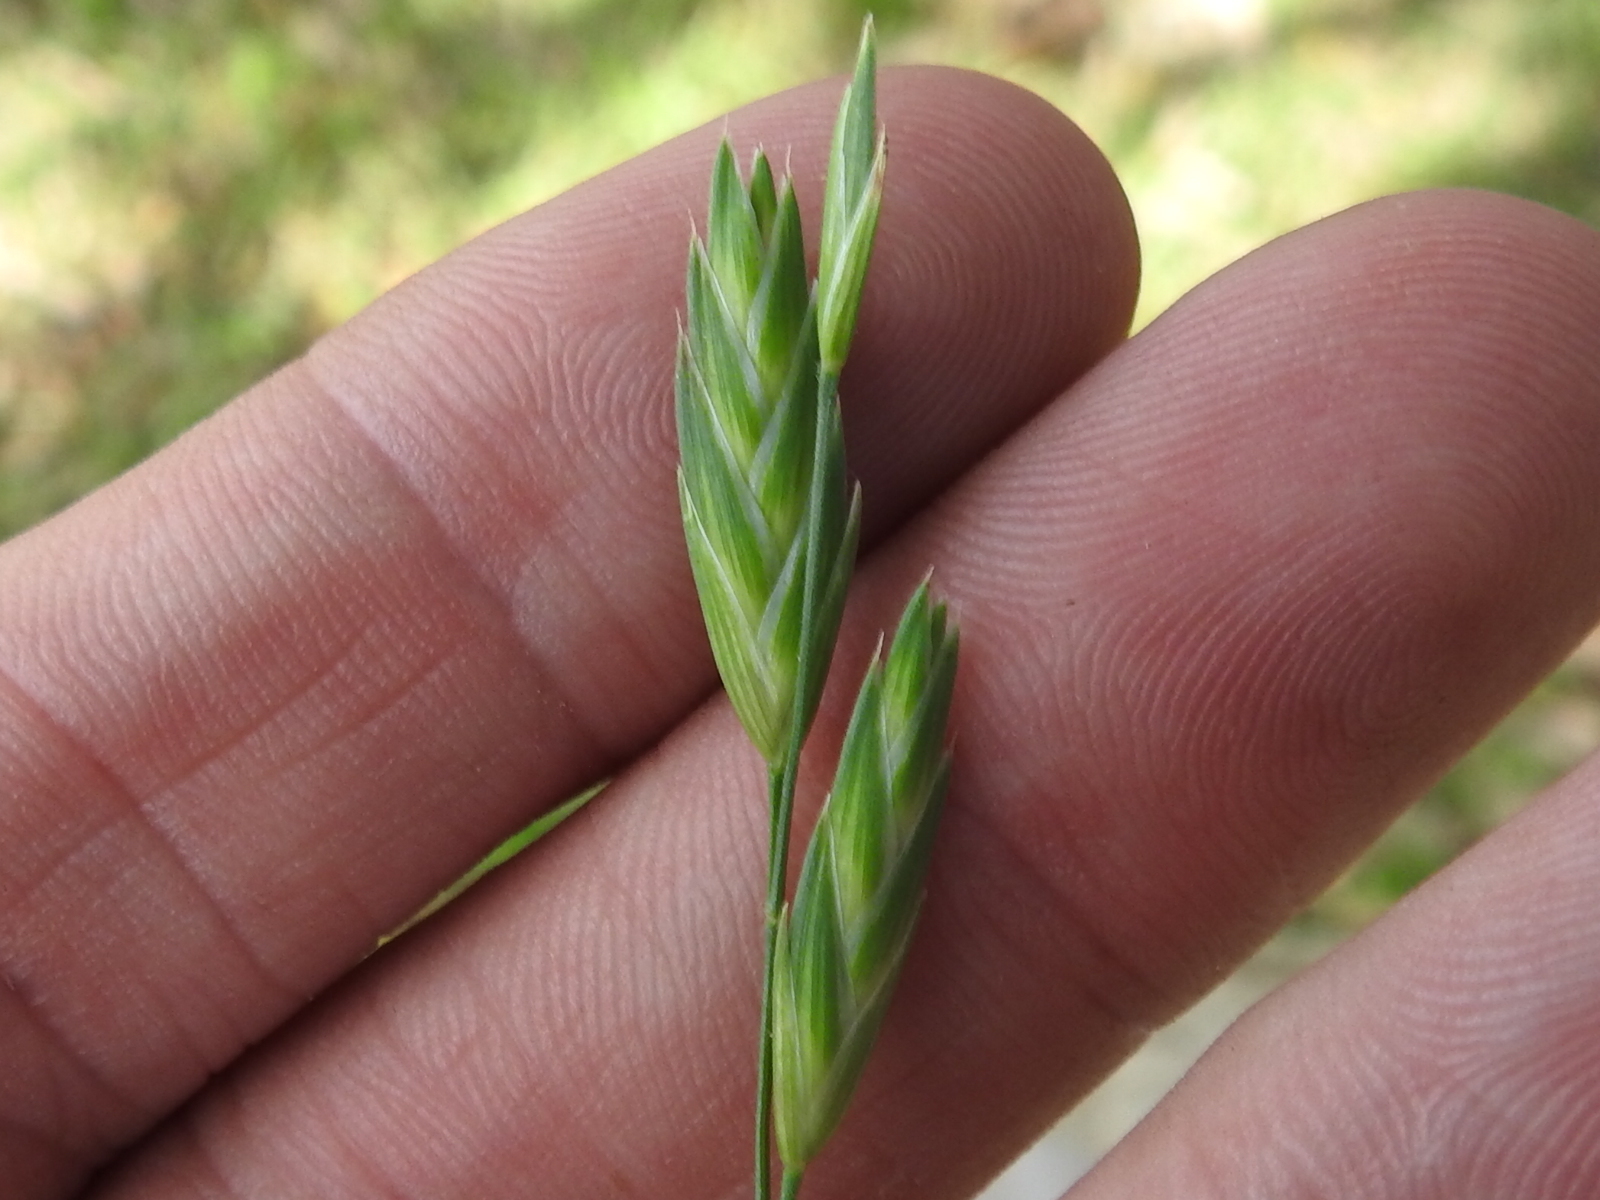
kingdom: Plantae
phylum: Tracheophyta
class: Liliopsida
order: Poales
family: Poaceae
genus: Bromus
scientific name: Bromus catharticus
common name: Rescuegrass
